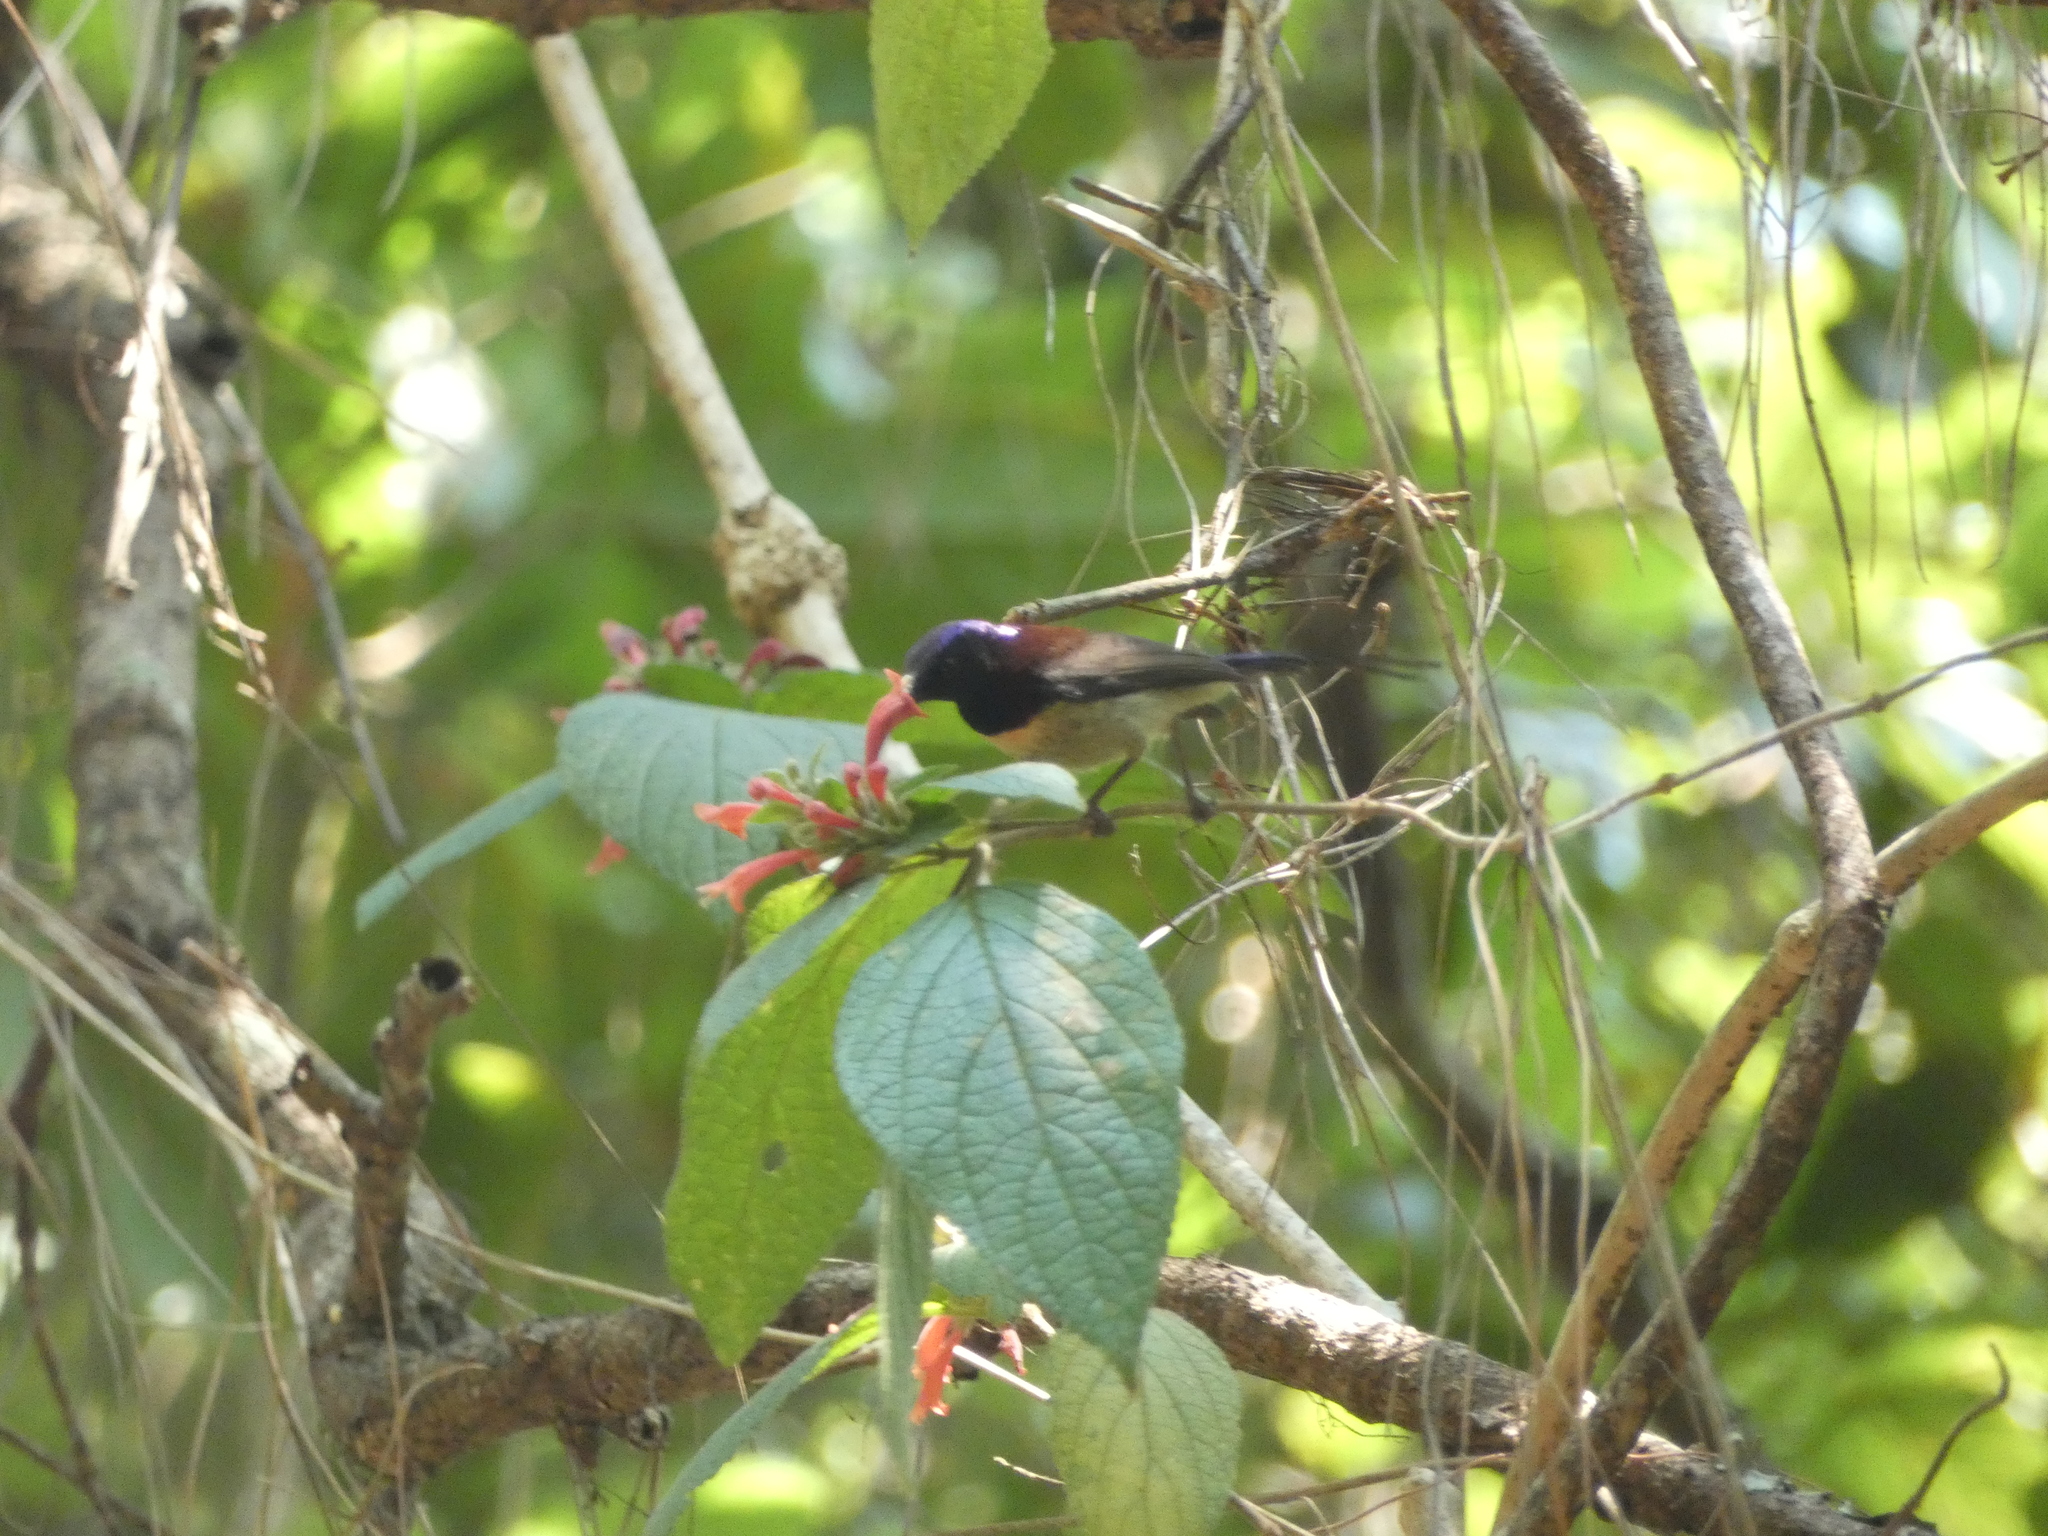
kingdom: Animalia
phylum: Chordata
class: Aves
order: Passeriformes
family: Nectariniidae
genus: Aethopyga
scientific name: Aethopyga saturata
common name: Black-throated sunbird
